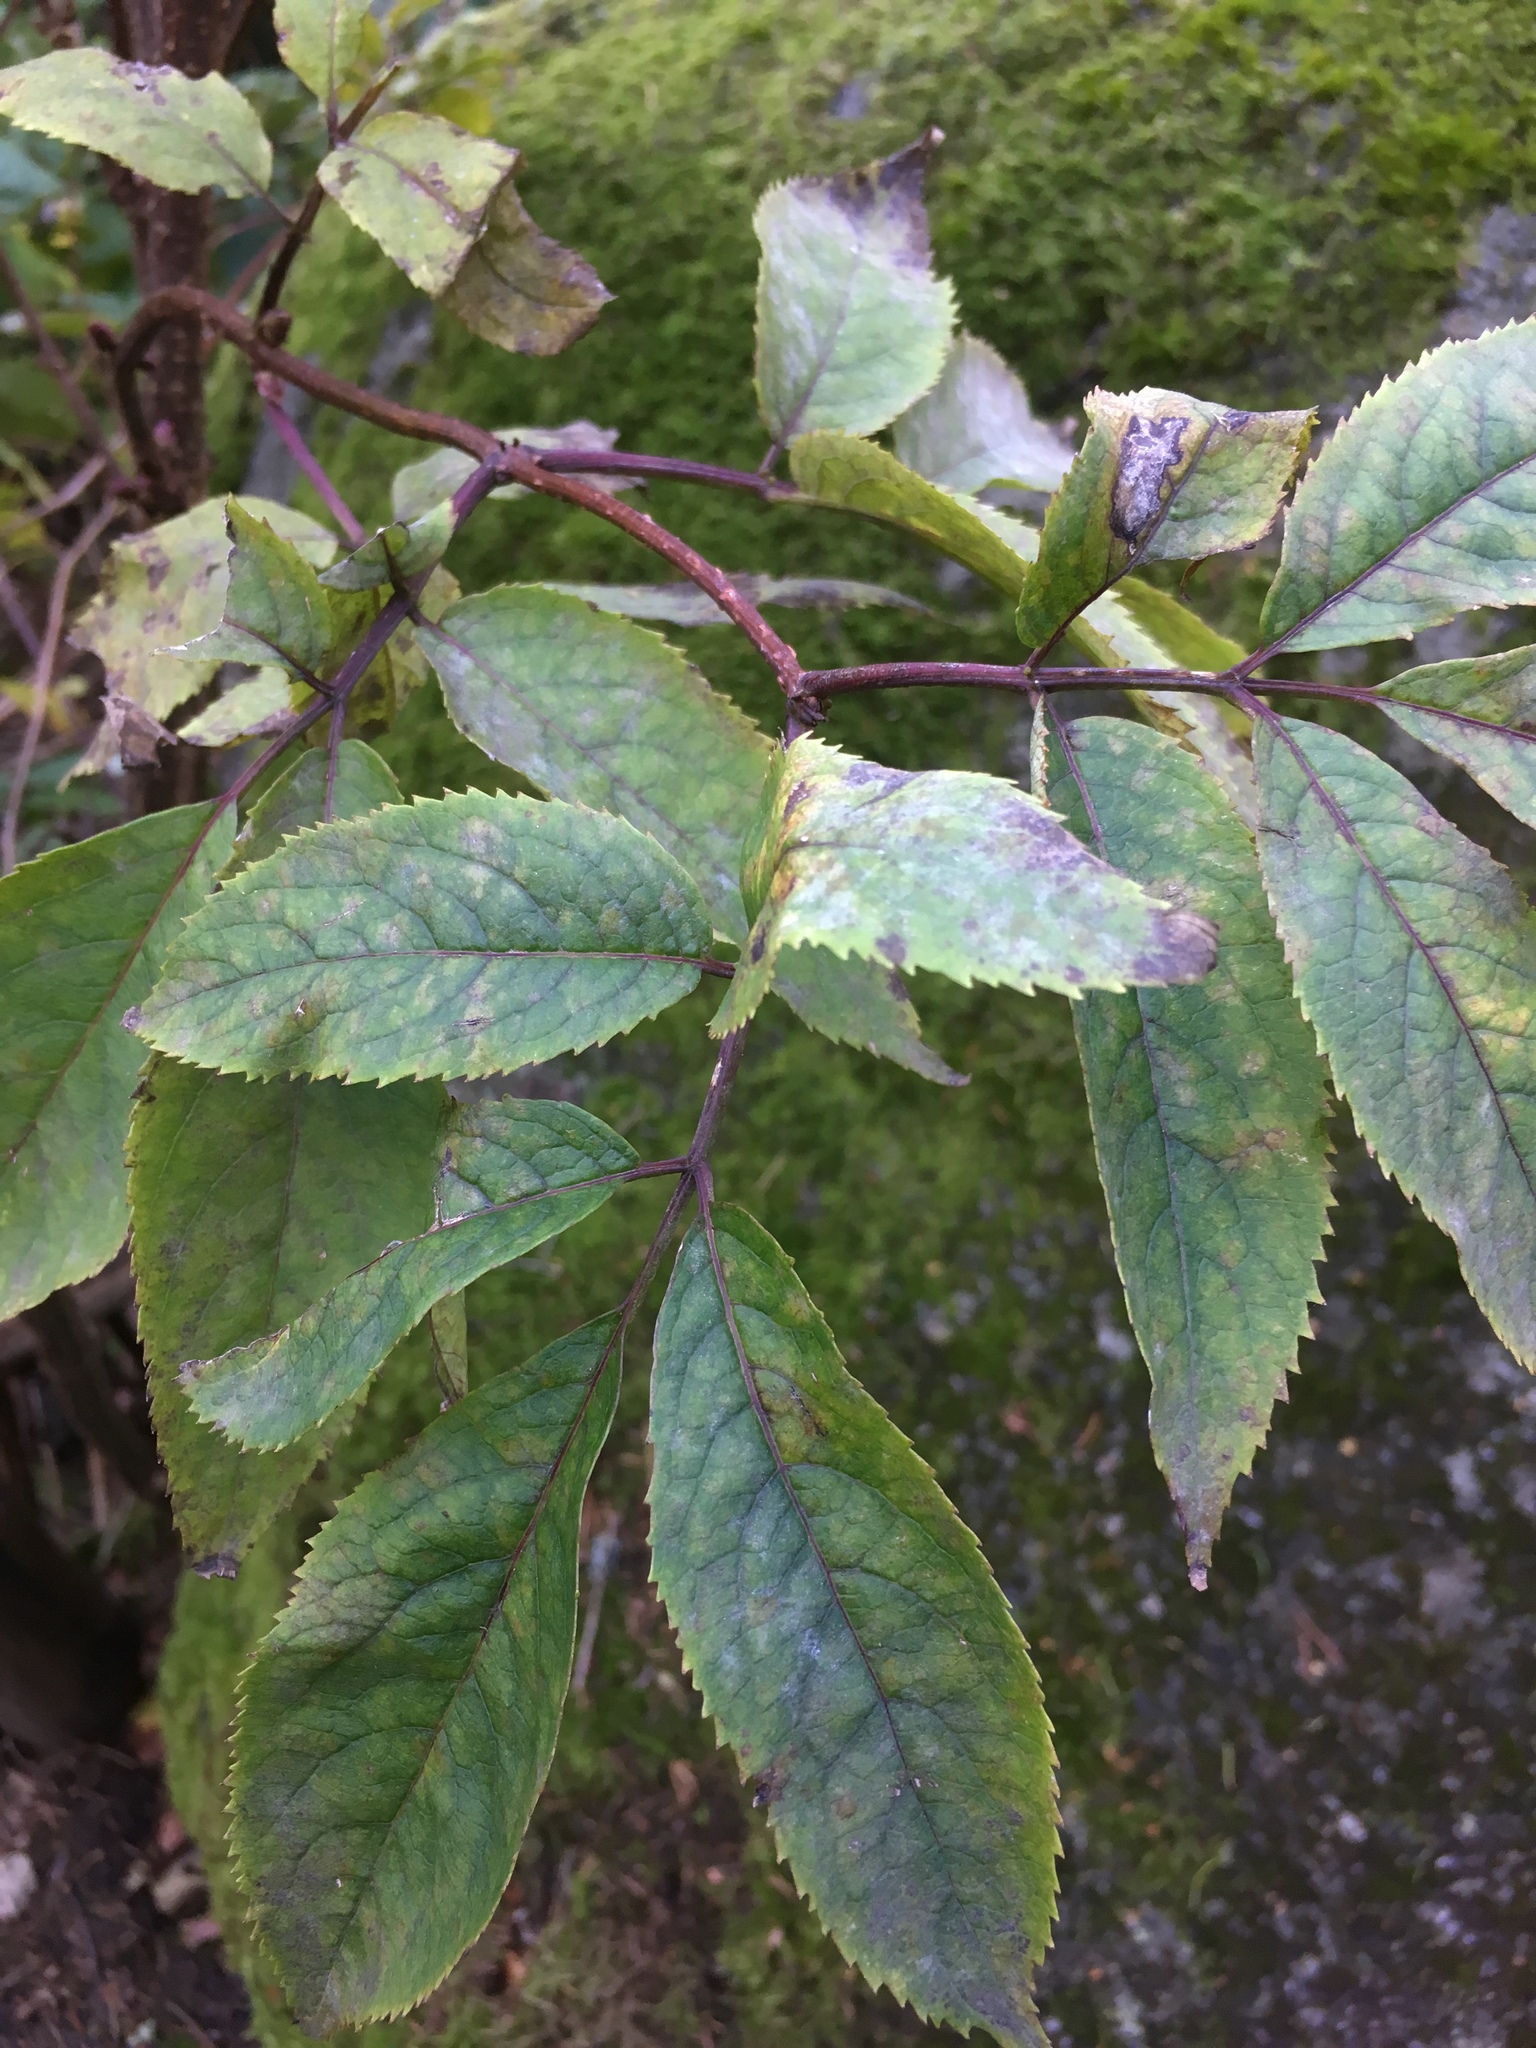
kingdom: Plantae
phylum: Tracheophyta
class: Magnoliopsida
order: Dipsacales
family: Viburnaceae
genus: Sambucus
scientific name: Sambucus nigra
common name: Elder
